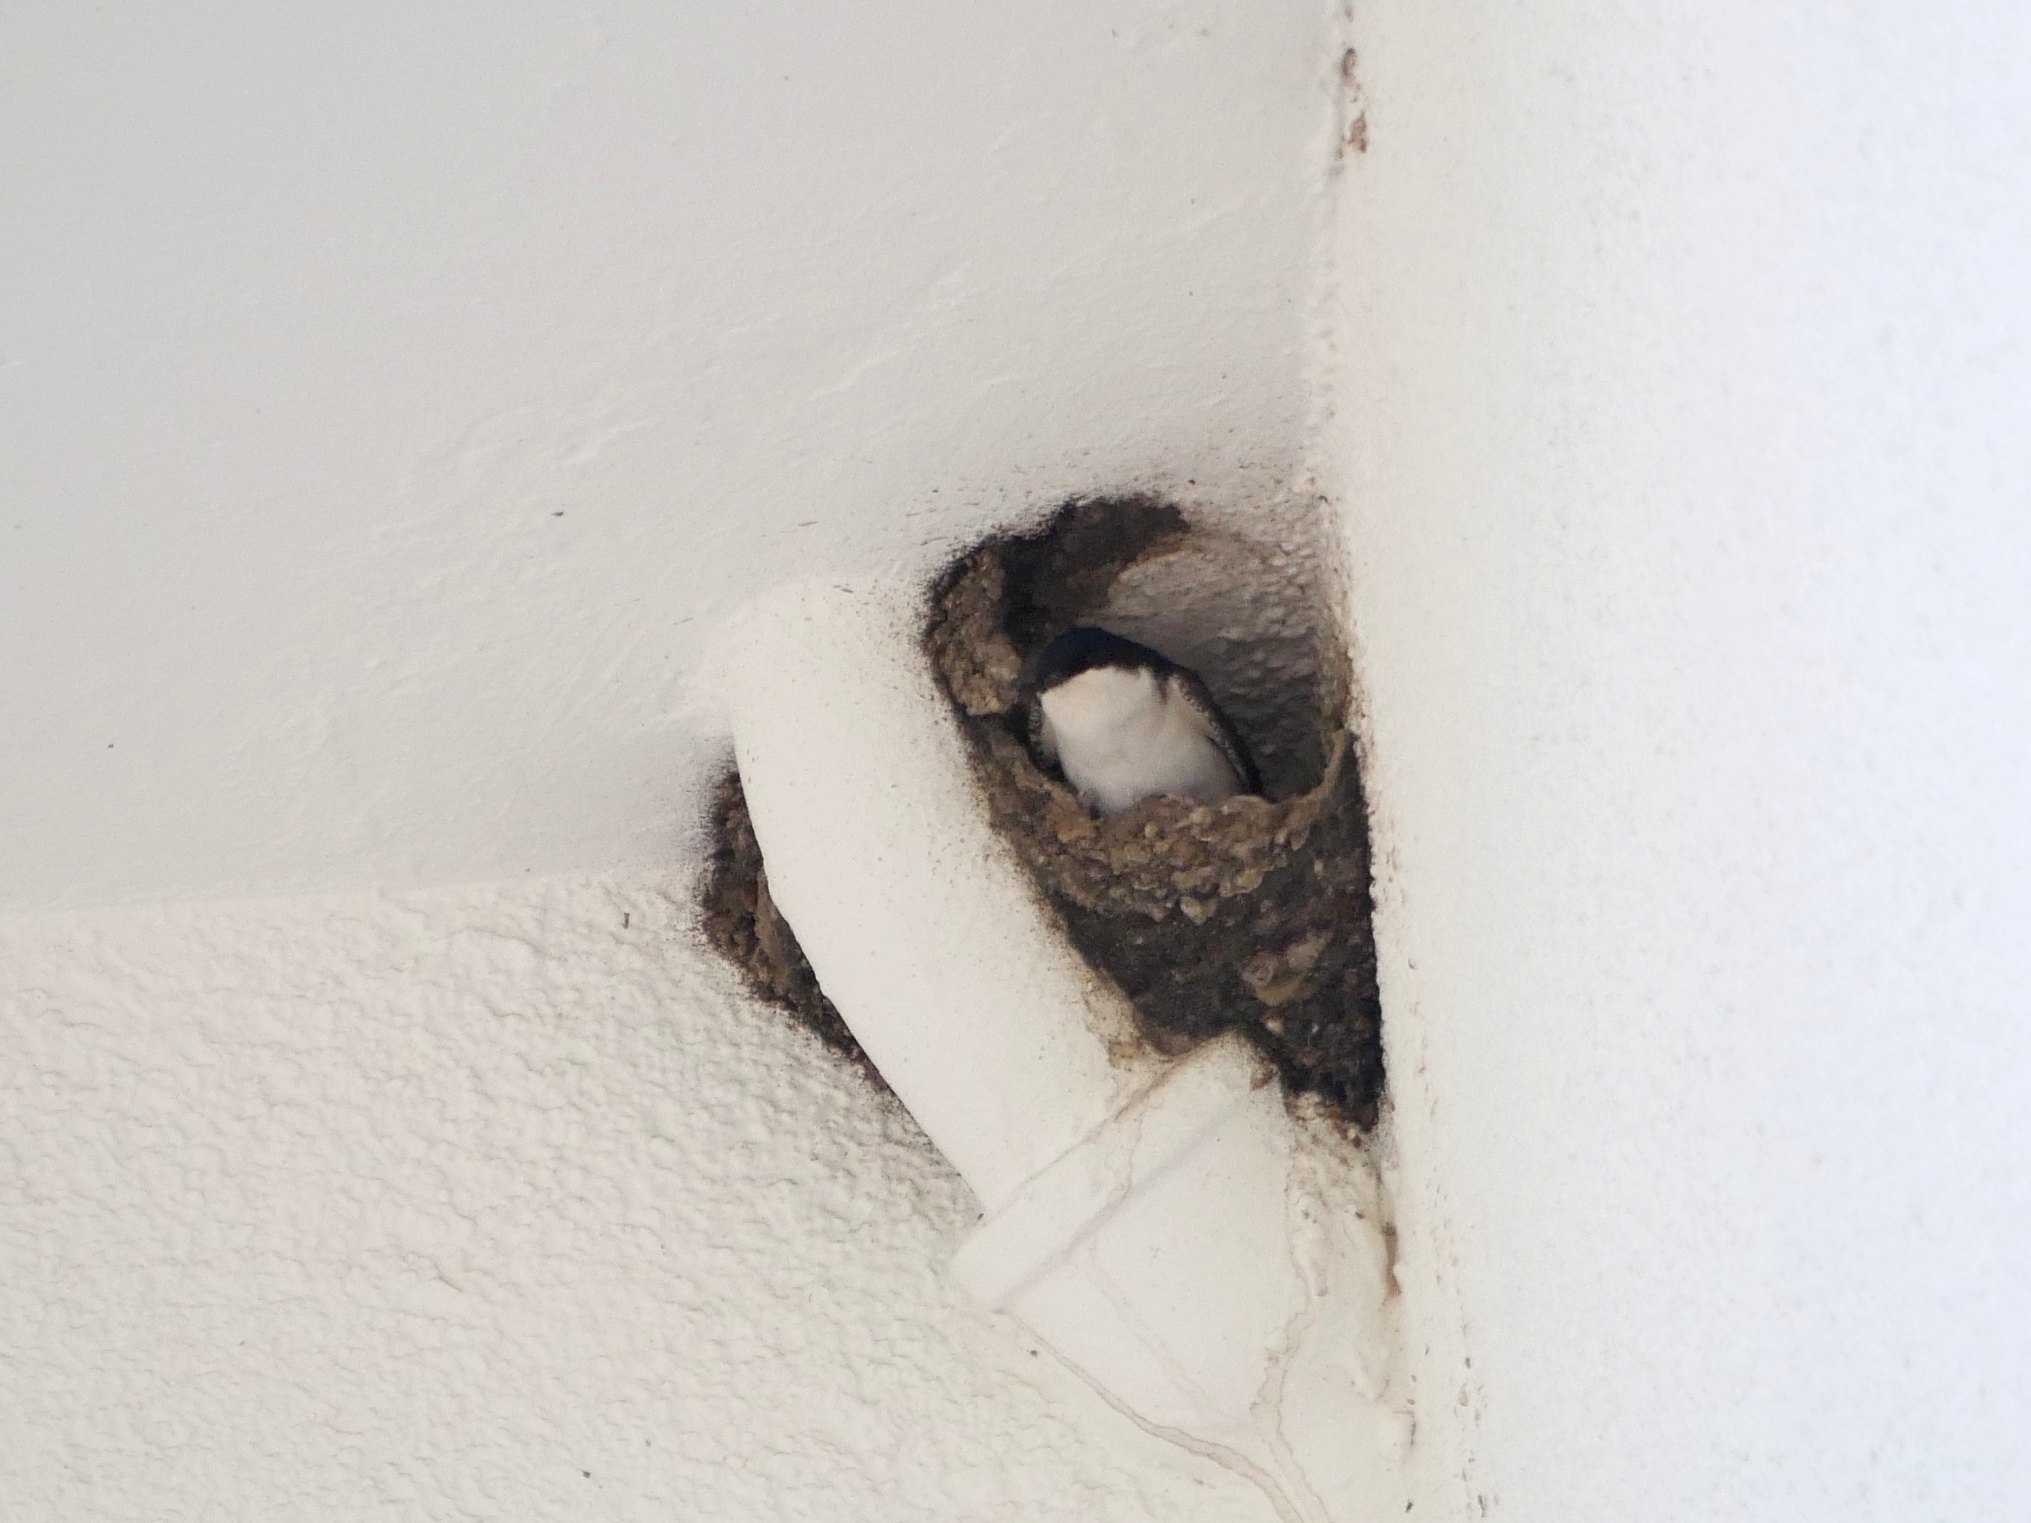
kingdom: Animalia
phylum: Chordata
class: Aves
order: Passeriformes
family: Hirundinidae
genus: Delichon
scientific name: Delichon urbicum
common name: Common house martin
